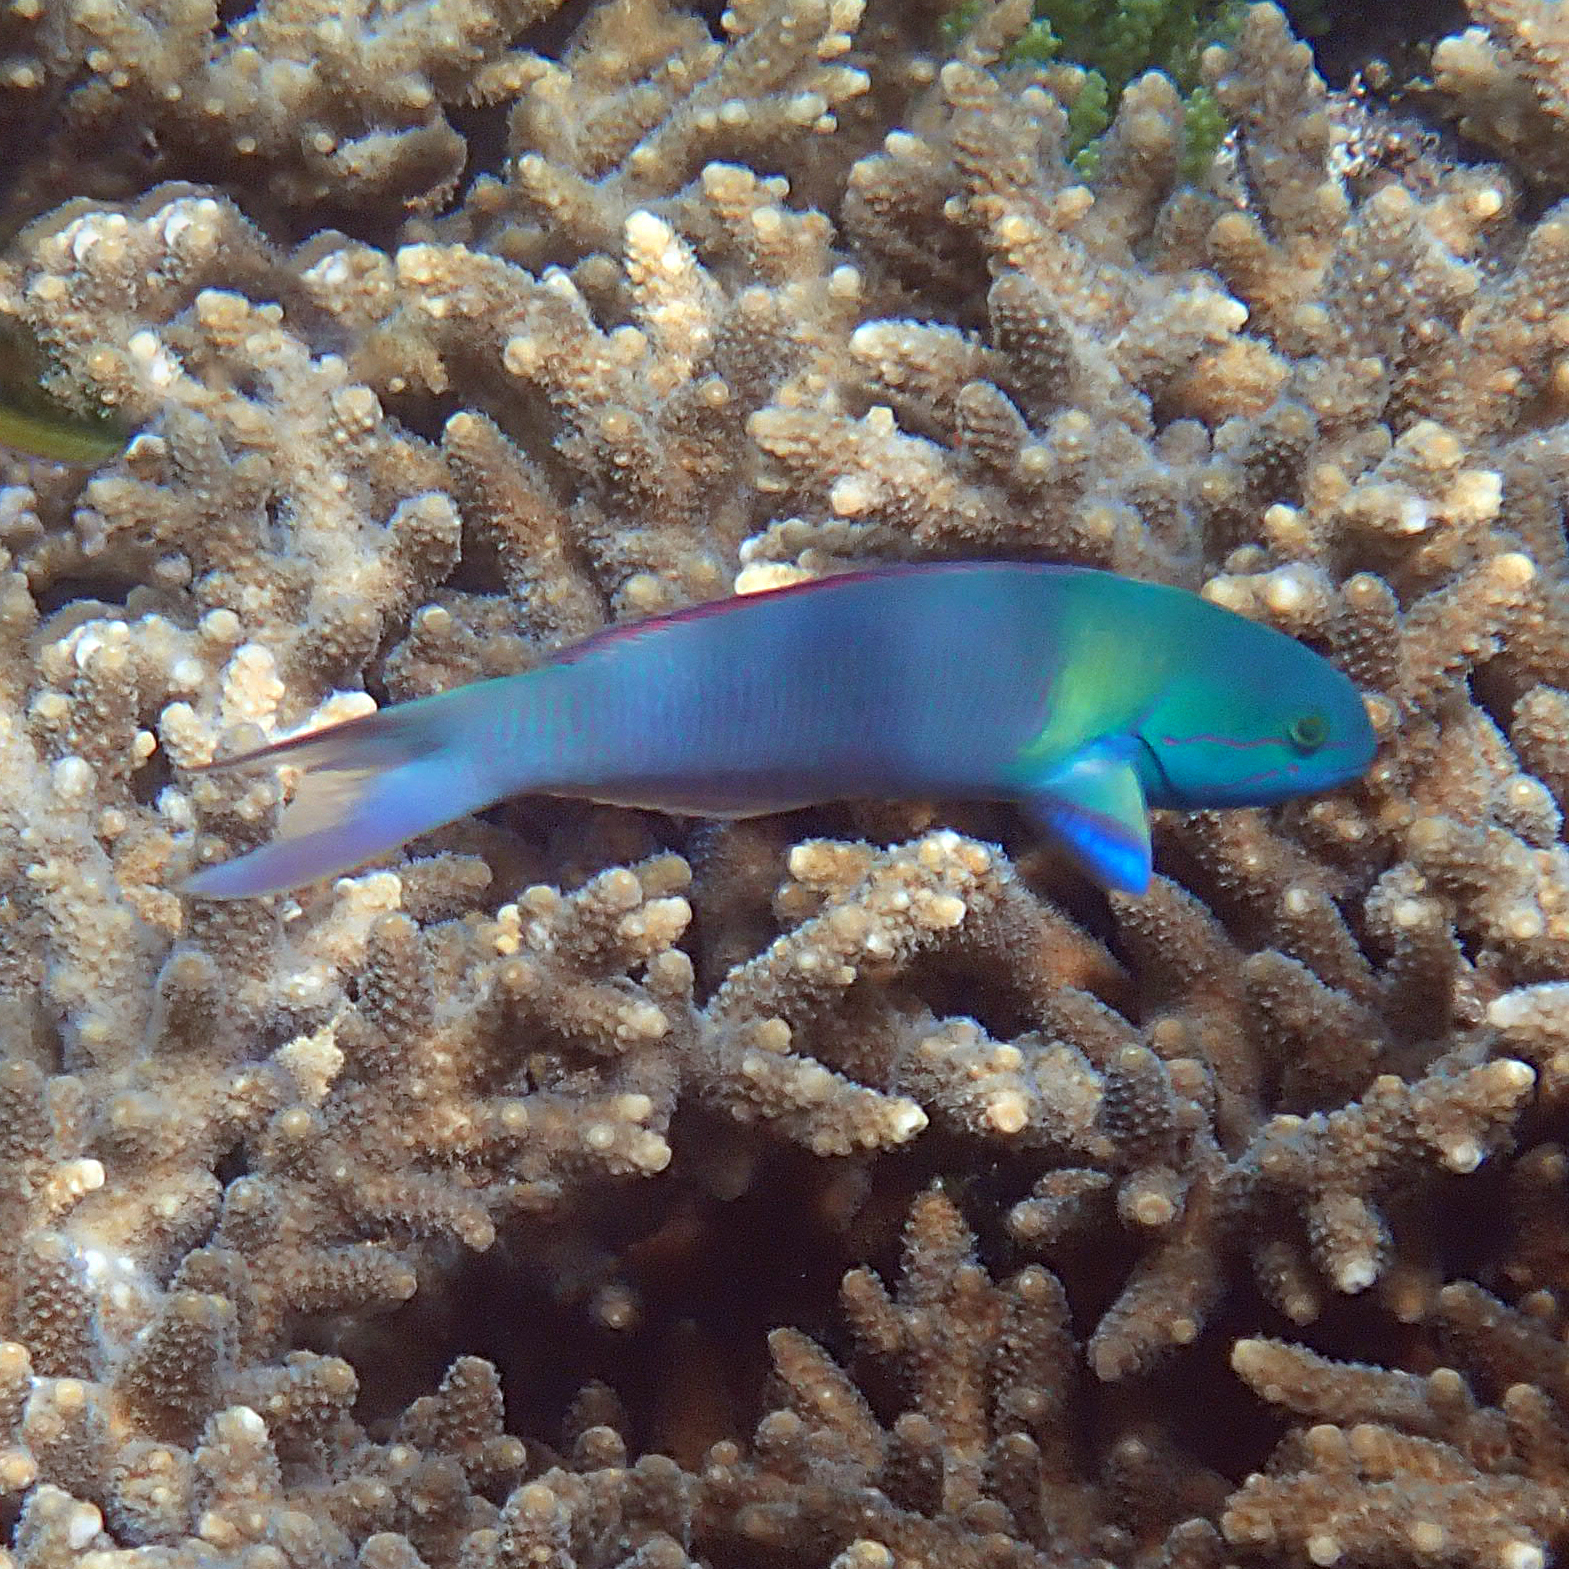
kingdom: Animalia
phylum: Chordata
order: Perciformes
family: Labridae
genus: Thalassoma
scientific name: Thalassoma amblycephalum
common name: Bluehead wrasse
